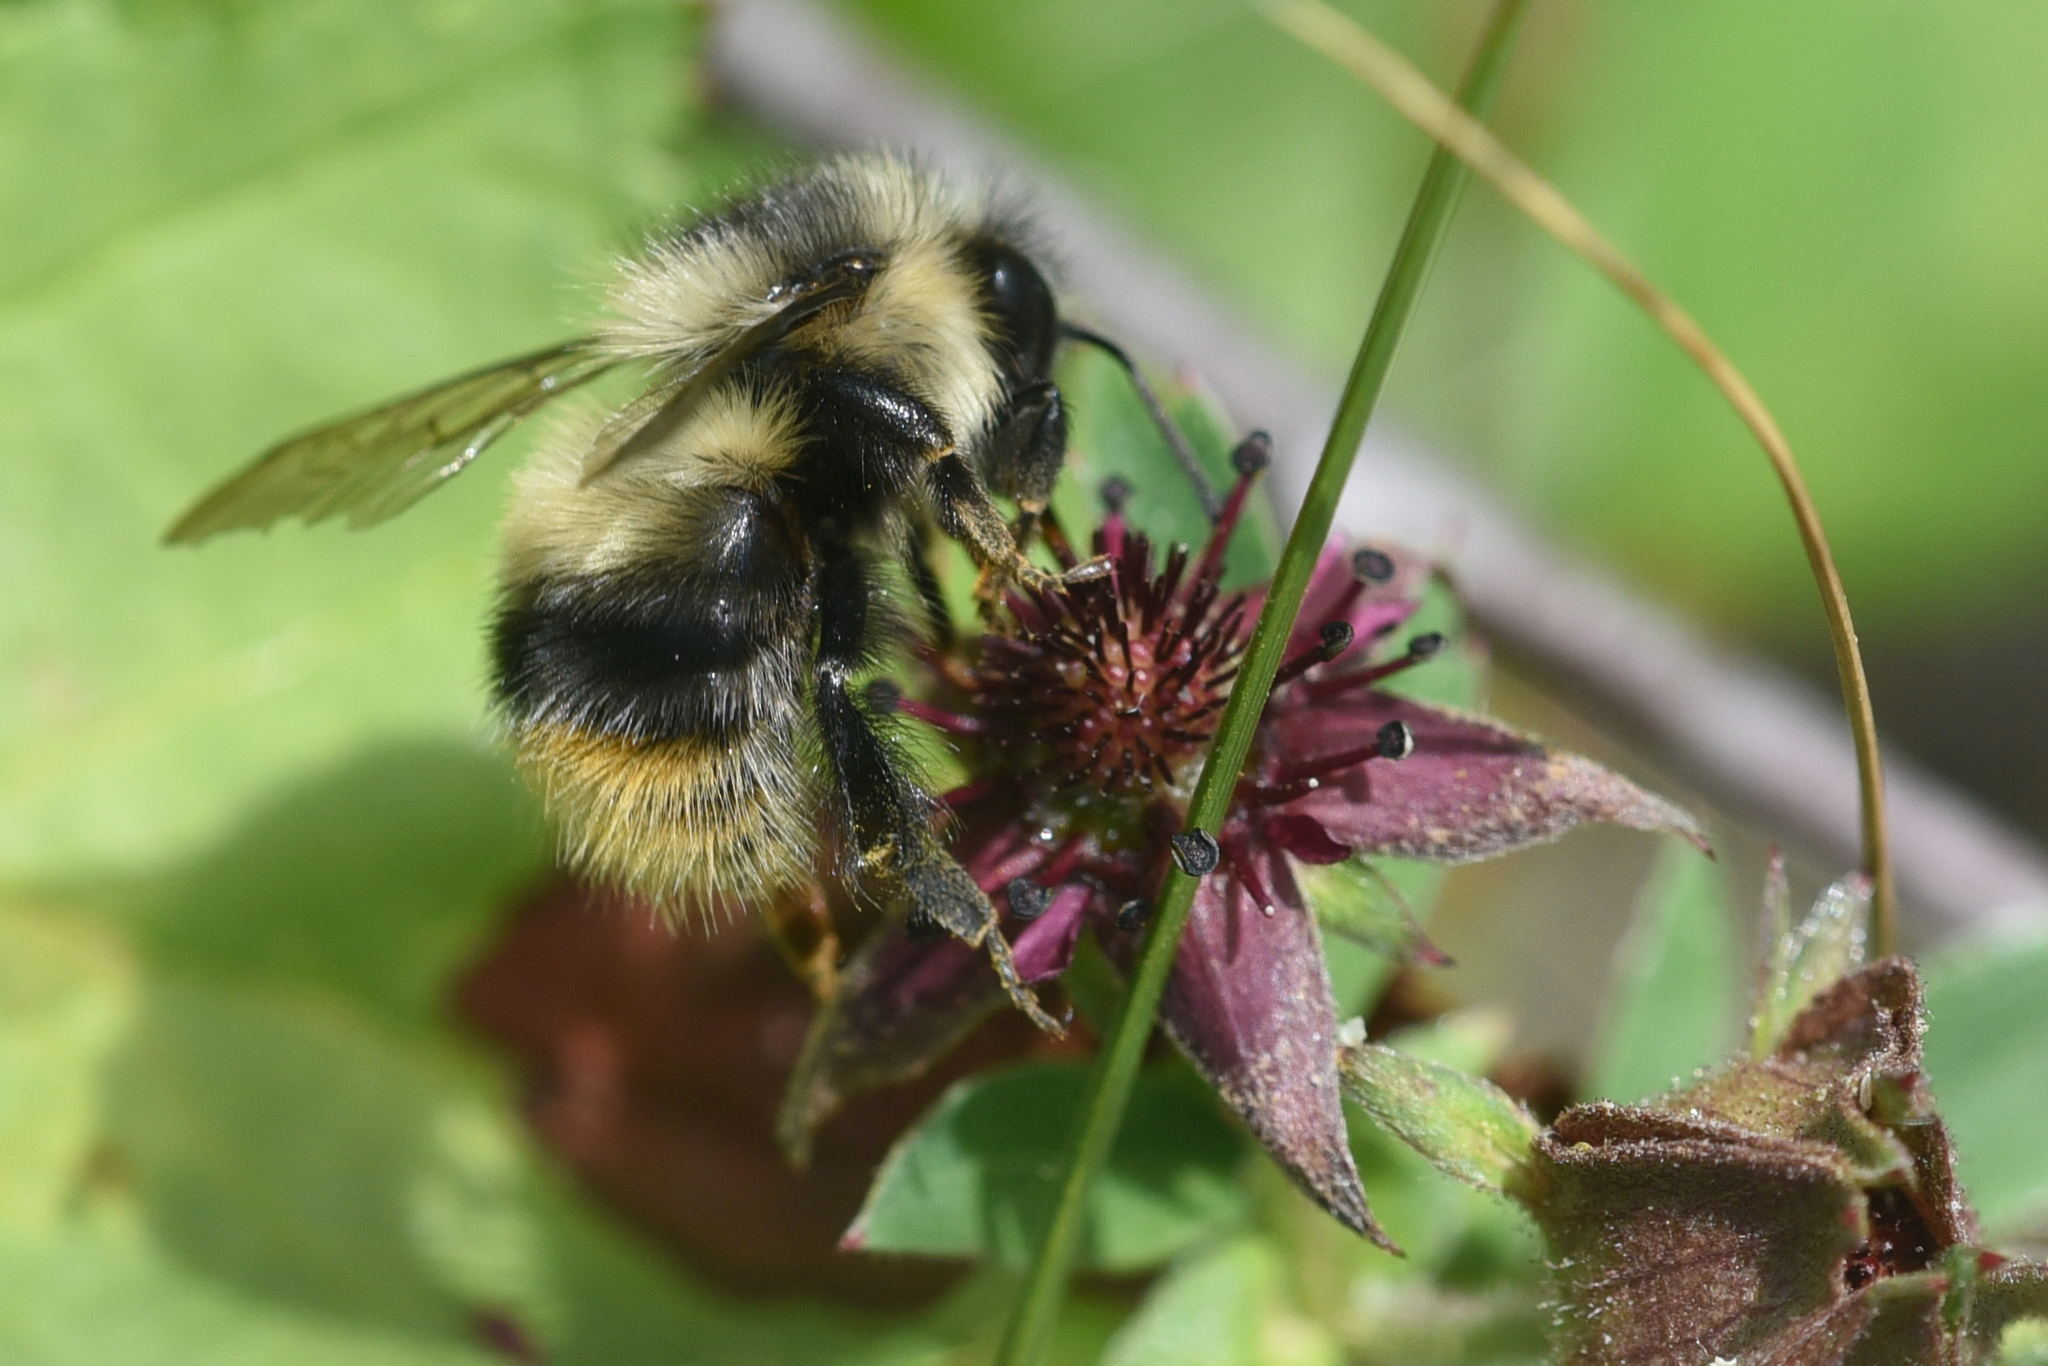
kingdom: Animalia
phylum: Arthropoda
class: Insecta
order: Hymenoptera
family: Apidae
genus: Bombus
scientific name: Bombus mixtus
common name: Fuzzy-horned bumble bee
